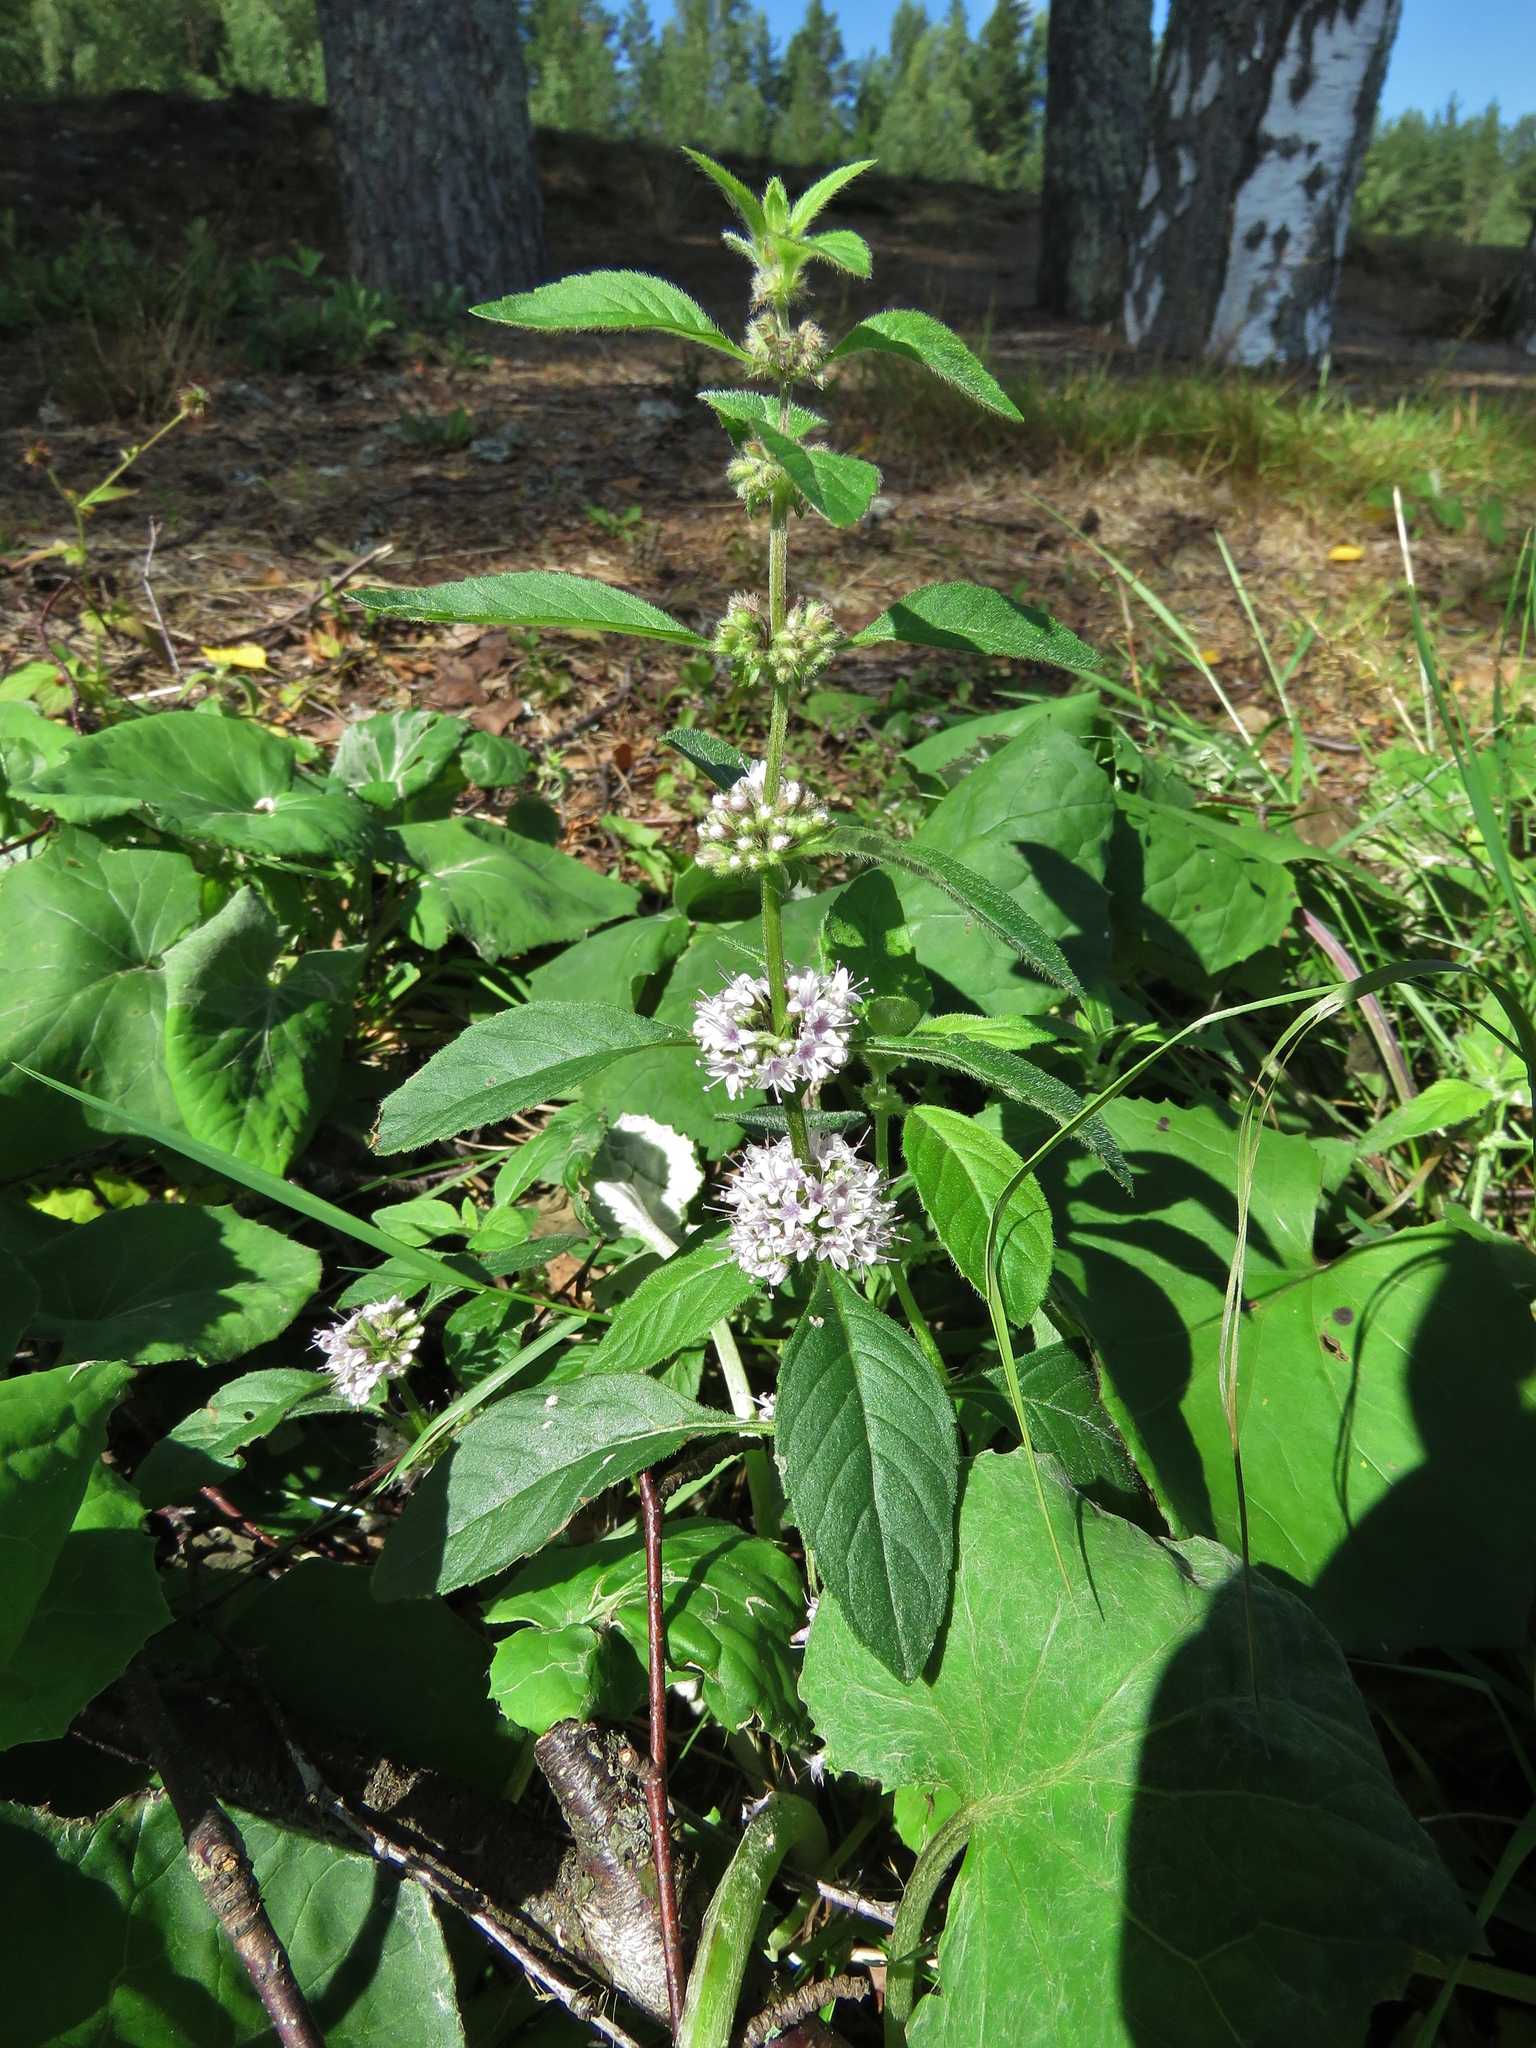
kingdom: Plantae
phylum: Tracheophyta
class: Magnoliopsida
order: Lamiales
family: Lamiaceae
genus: Mentha
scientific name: Mentha arvensis
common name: Corn mint
